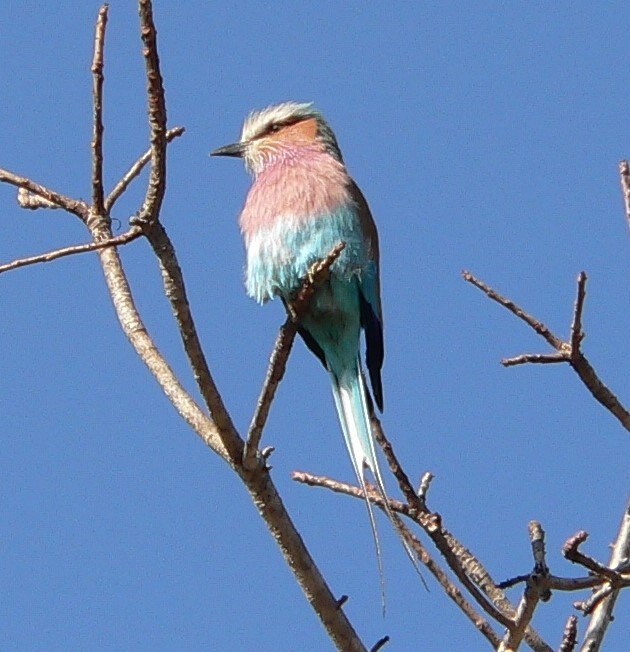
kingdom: Animalia
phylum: Chordata
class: Aves
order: Coraciiformes
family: Coraciidae
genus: Coracias
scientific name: Coracias caudatus
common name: Lilac-breasted roller
